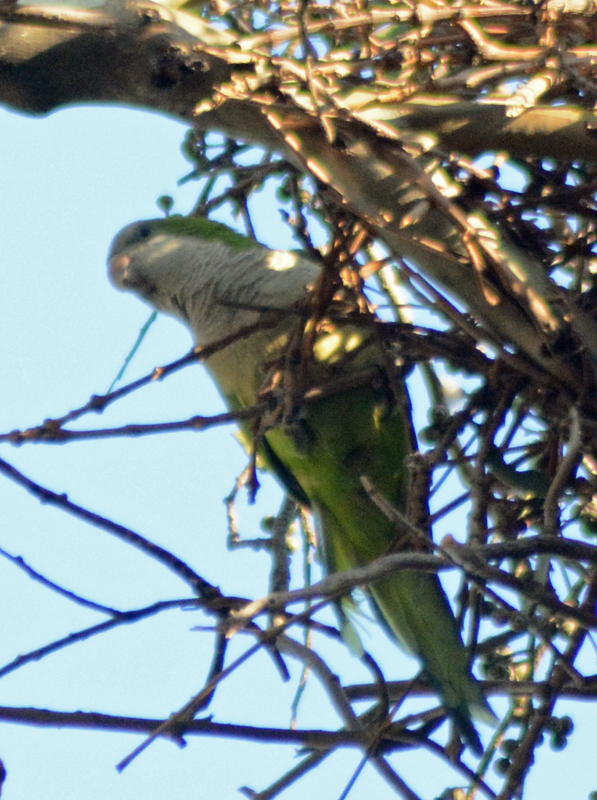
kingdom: Animalia
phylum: Chordata
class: Aves
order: Psittaciformes
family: Psittacidae
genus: Myiopsitta
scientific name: Myiopsitta monachus
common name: Monk parakeet
